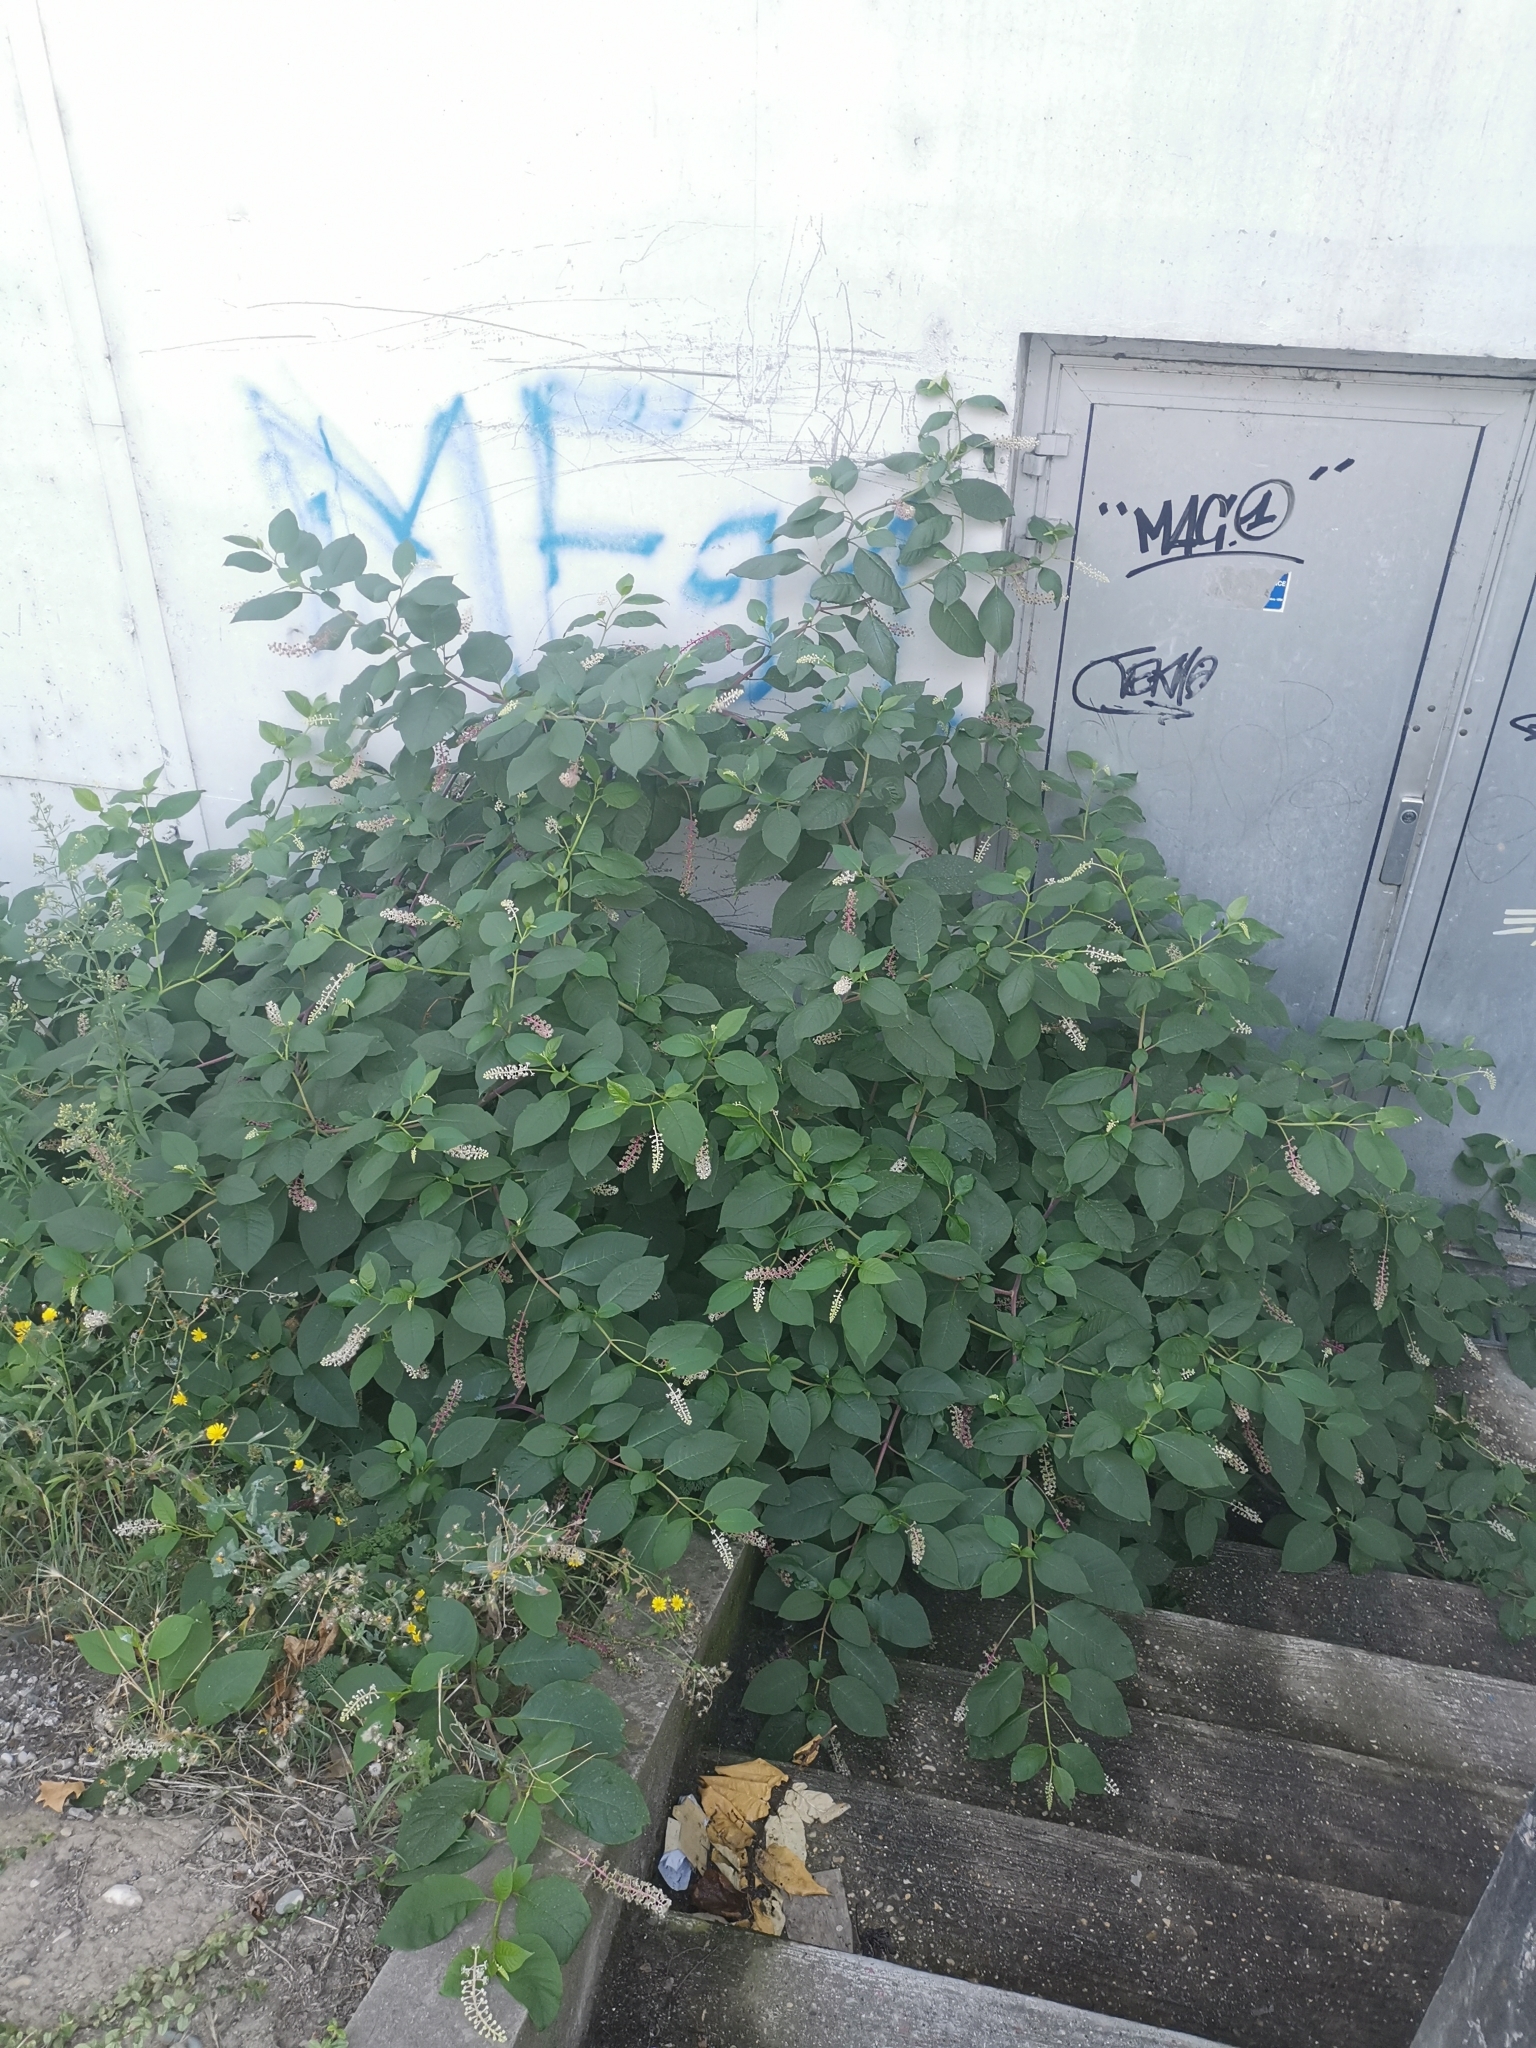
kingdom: Plantae
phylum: Tracheophyta
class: Magnoliopsida
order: Caryophyllales
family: Phytolaccaceae
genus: Phytolacca
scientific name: Phytolacca americana
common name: American pokeweed
